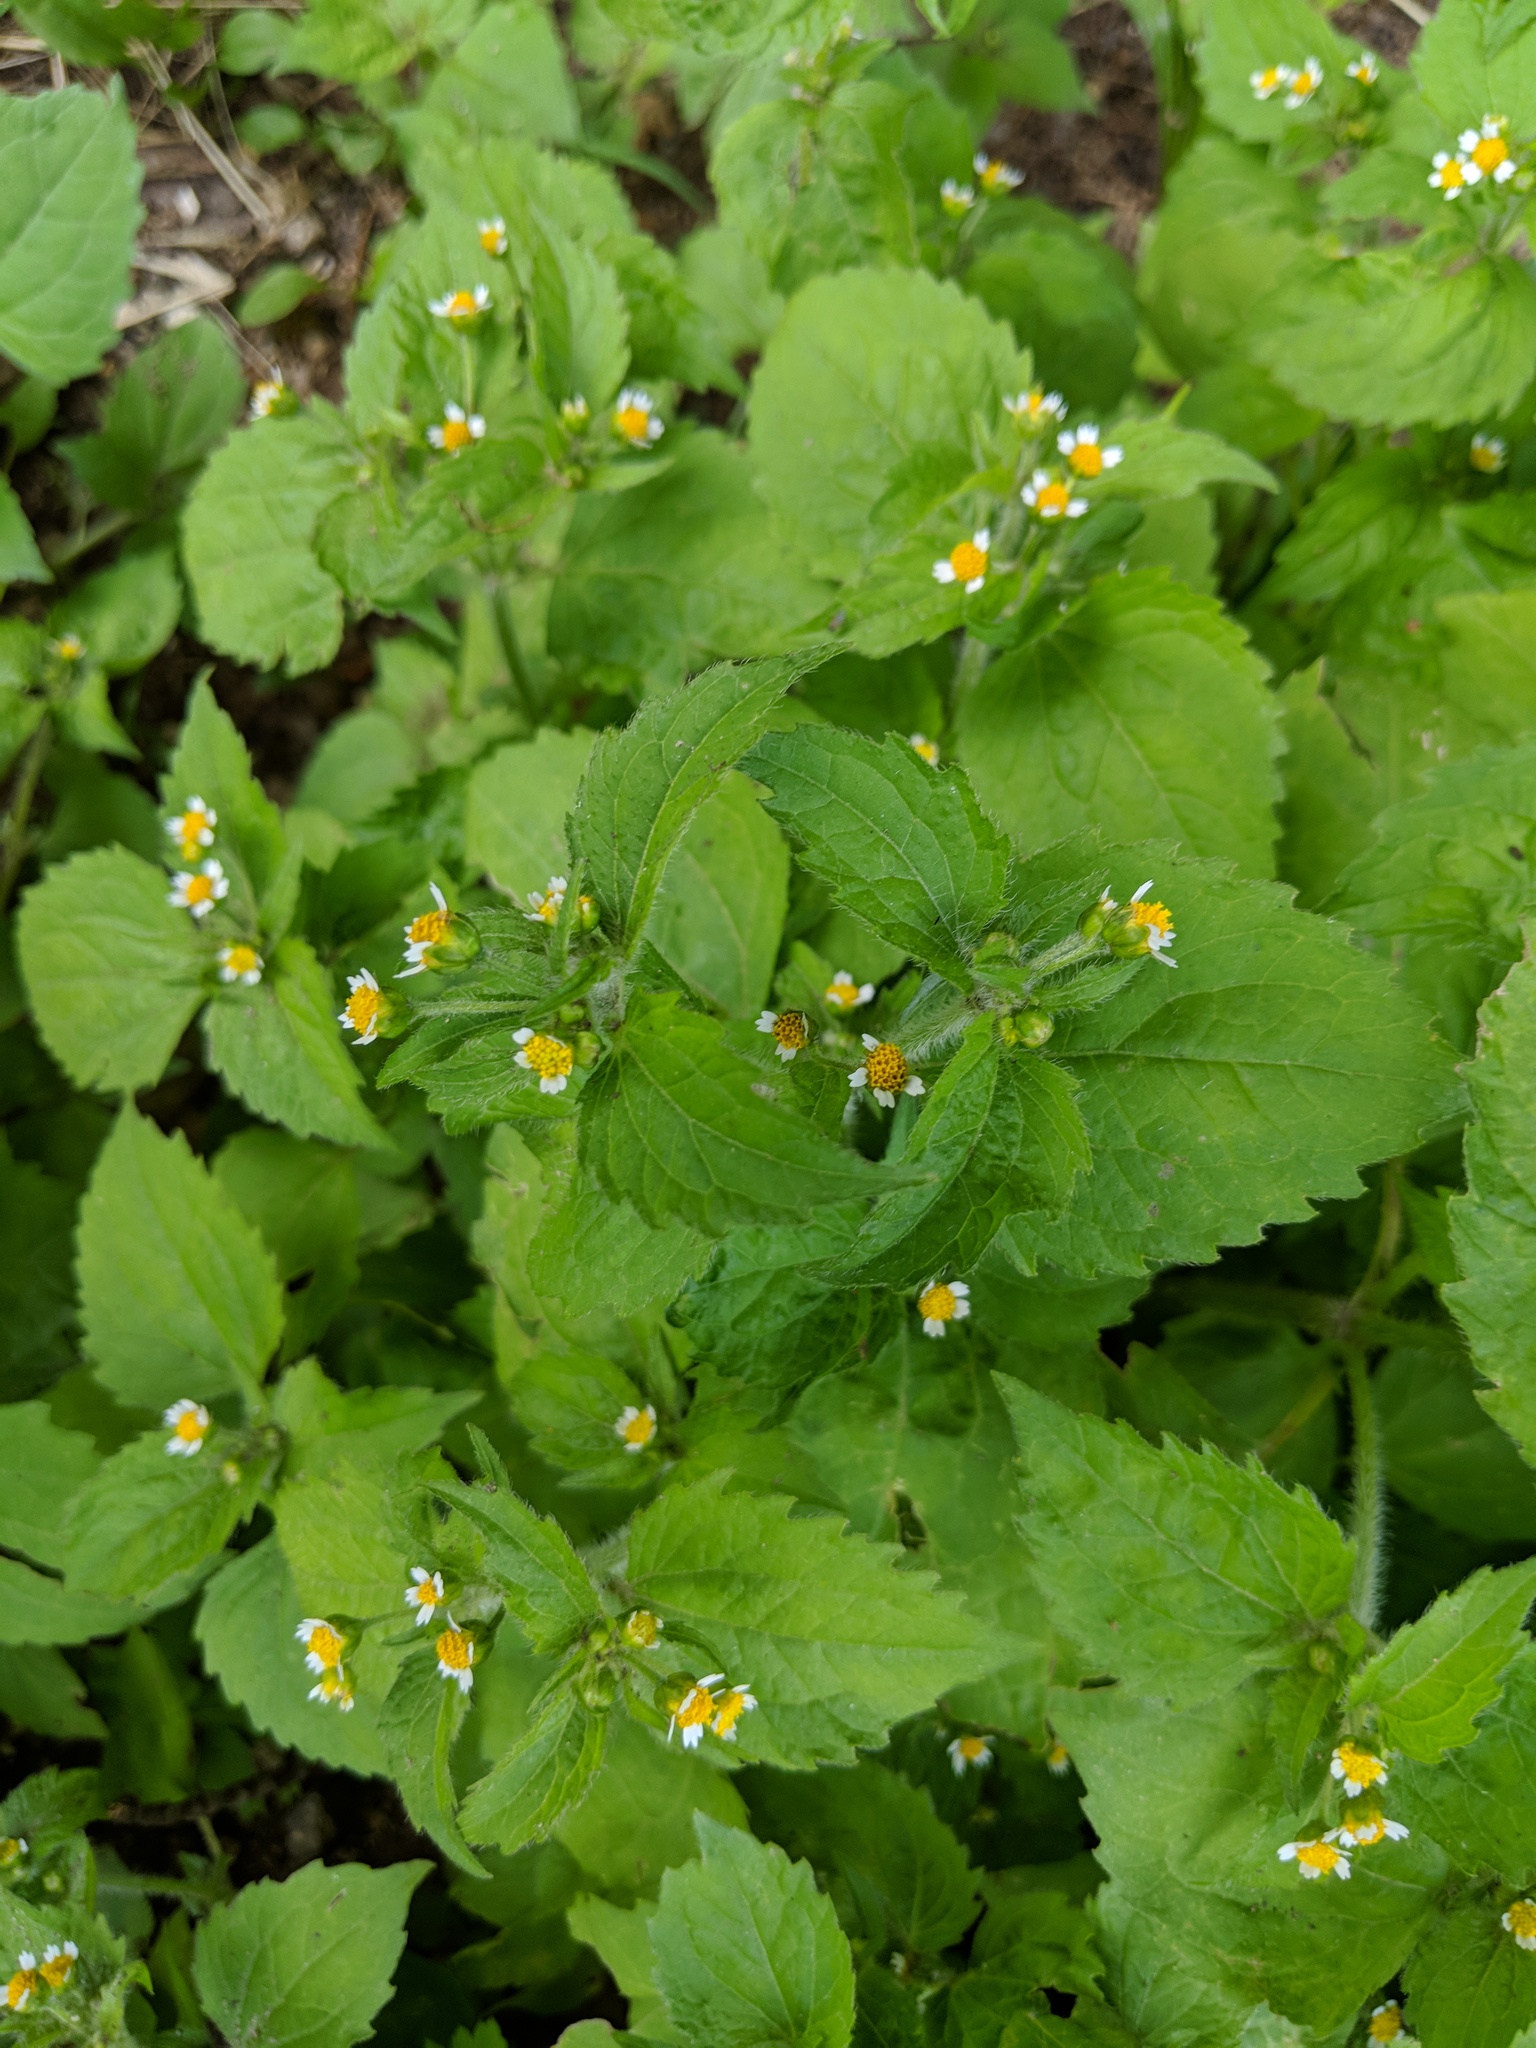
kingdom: Plantae
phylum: Tracheophyta
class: Magnoliopsida
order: Asterales
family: Asteraceae
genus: Galinsoga
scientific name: Galinsoga quadriradiata
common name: Shaggy soldier
